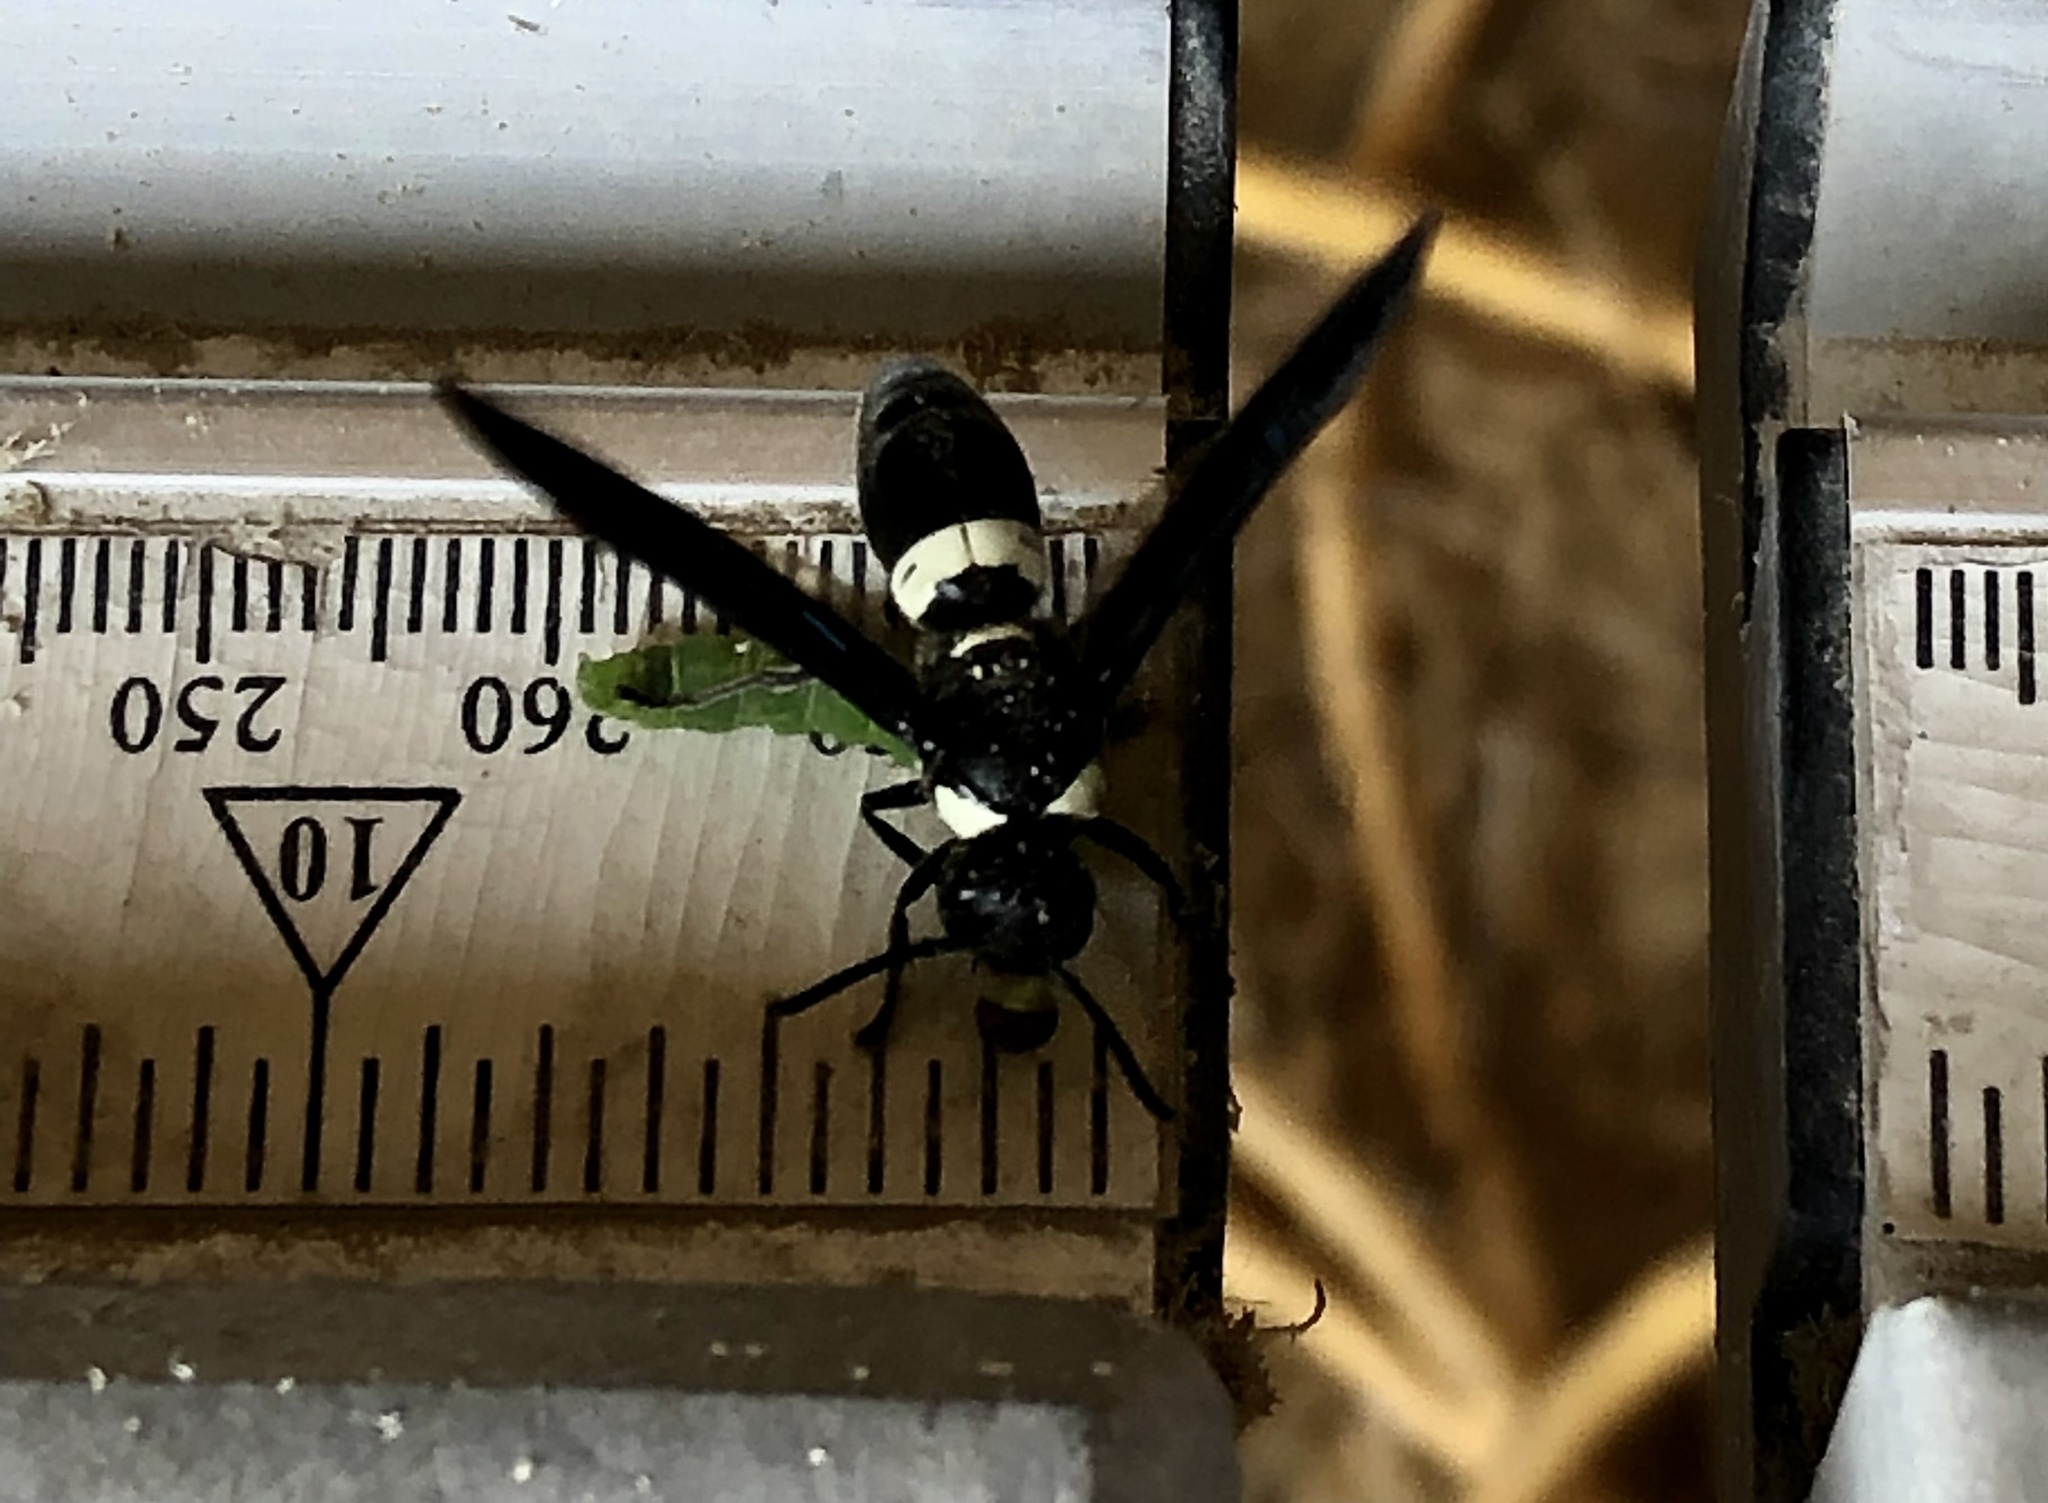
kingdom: Animalia
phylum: Arthropoda
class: Insecta
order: Hymenoptera
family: Eumenidae
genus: Monobia
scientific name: Monobia quadridens
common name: Four-toothed mason wasp
